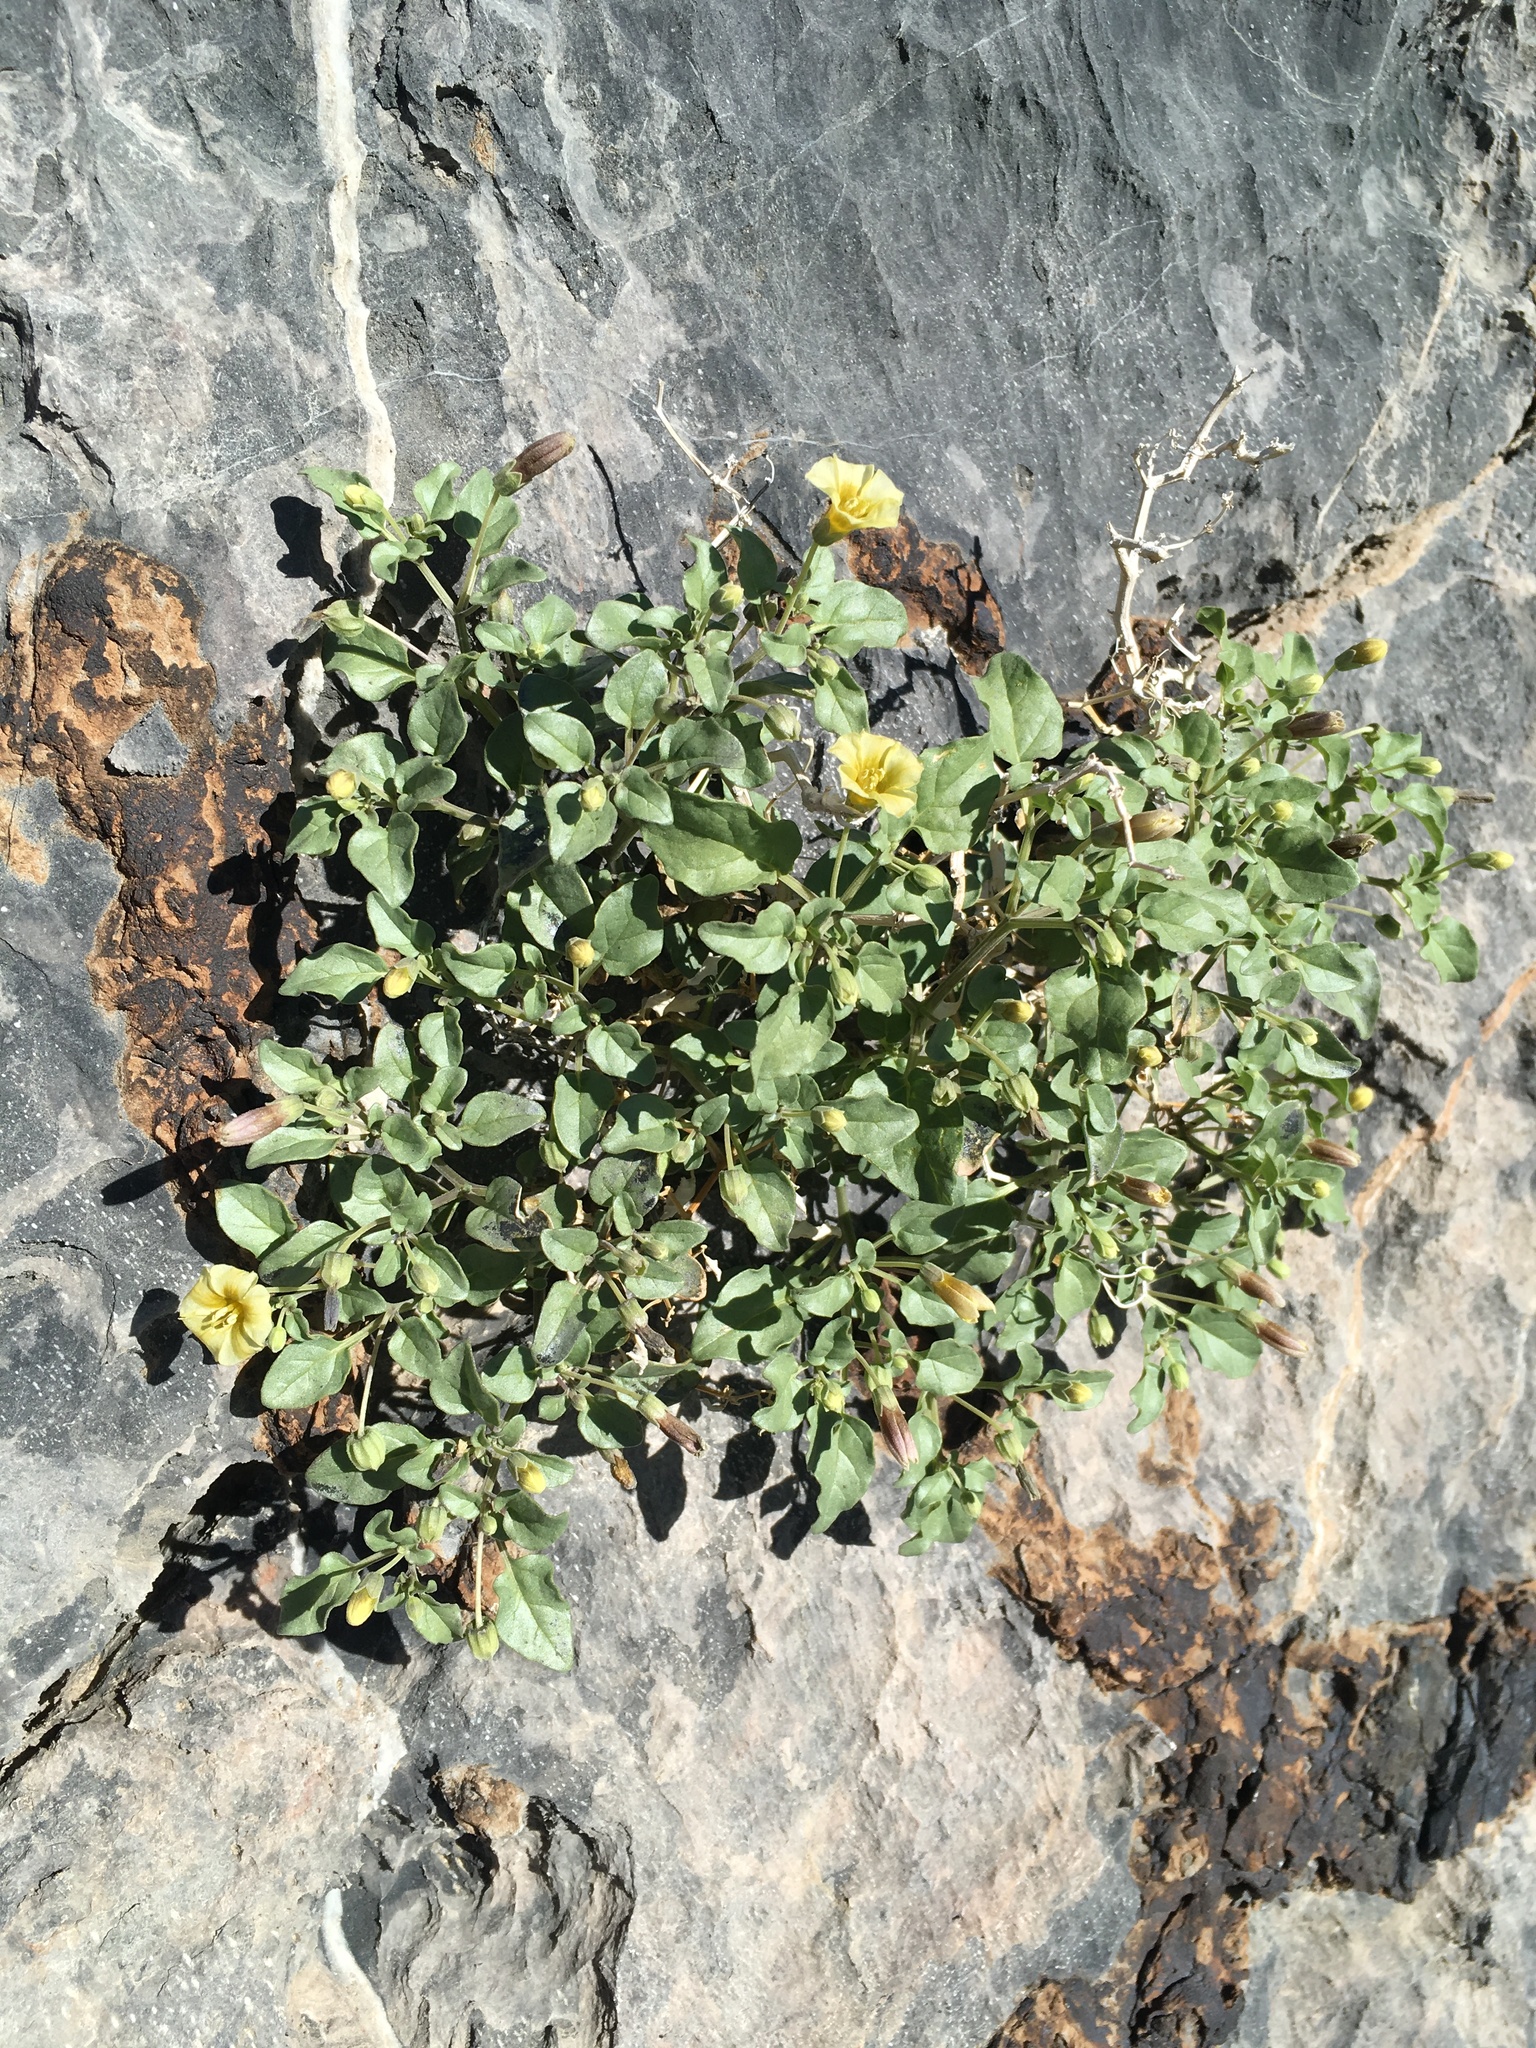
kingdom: Plantae
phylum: Tracheophyta
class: Magnoliopsida
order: Solanales
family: Solanaceae
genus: Physalis
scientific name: Physalis crassifolia
